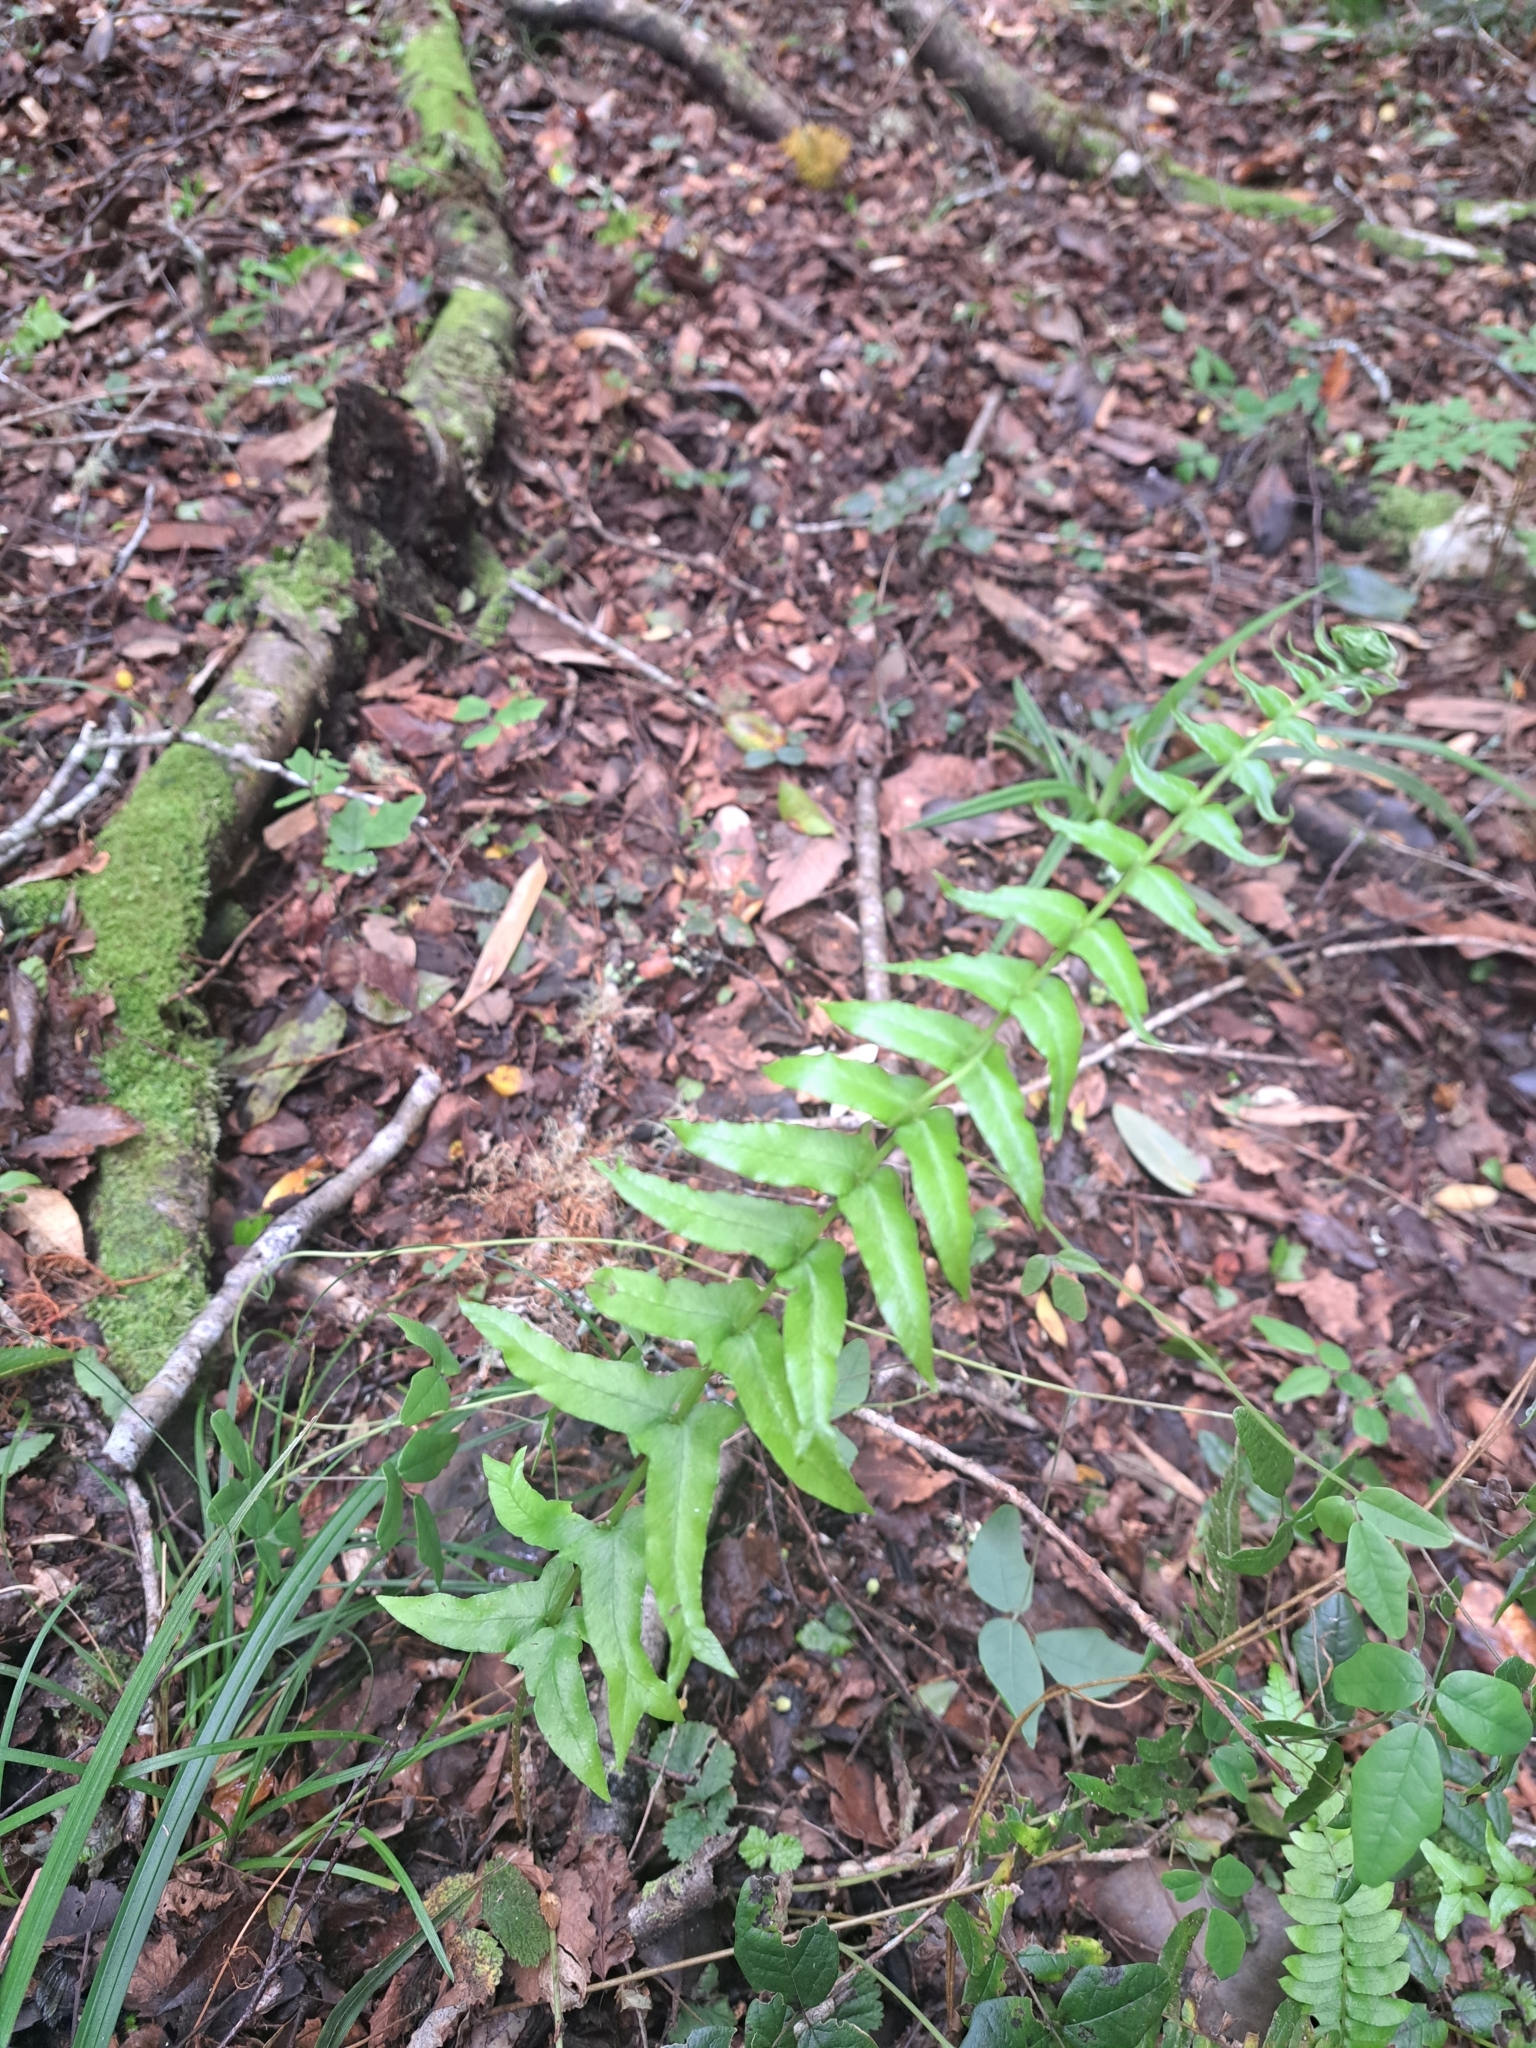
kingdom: Plantae
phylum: Tracheophyta
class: Polypodiopsida
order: Polypodiales
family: Blechnaceae
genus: Blechnum
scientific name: Blechnum hastatum
